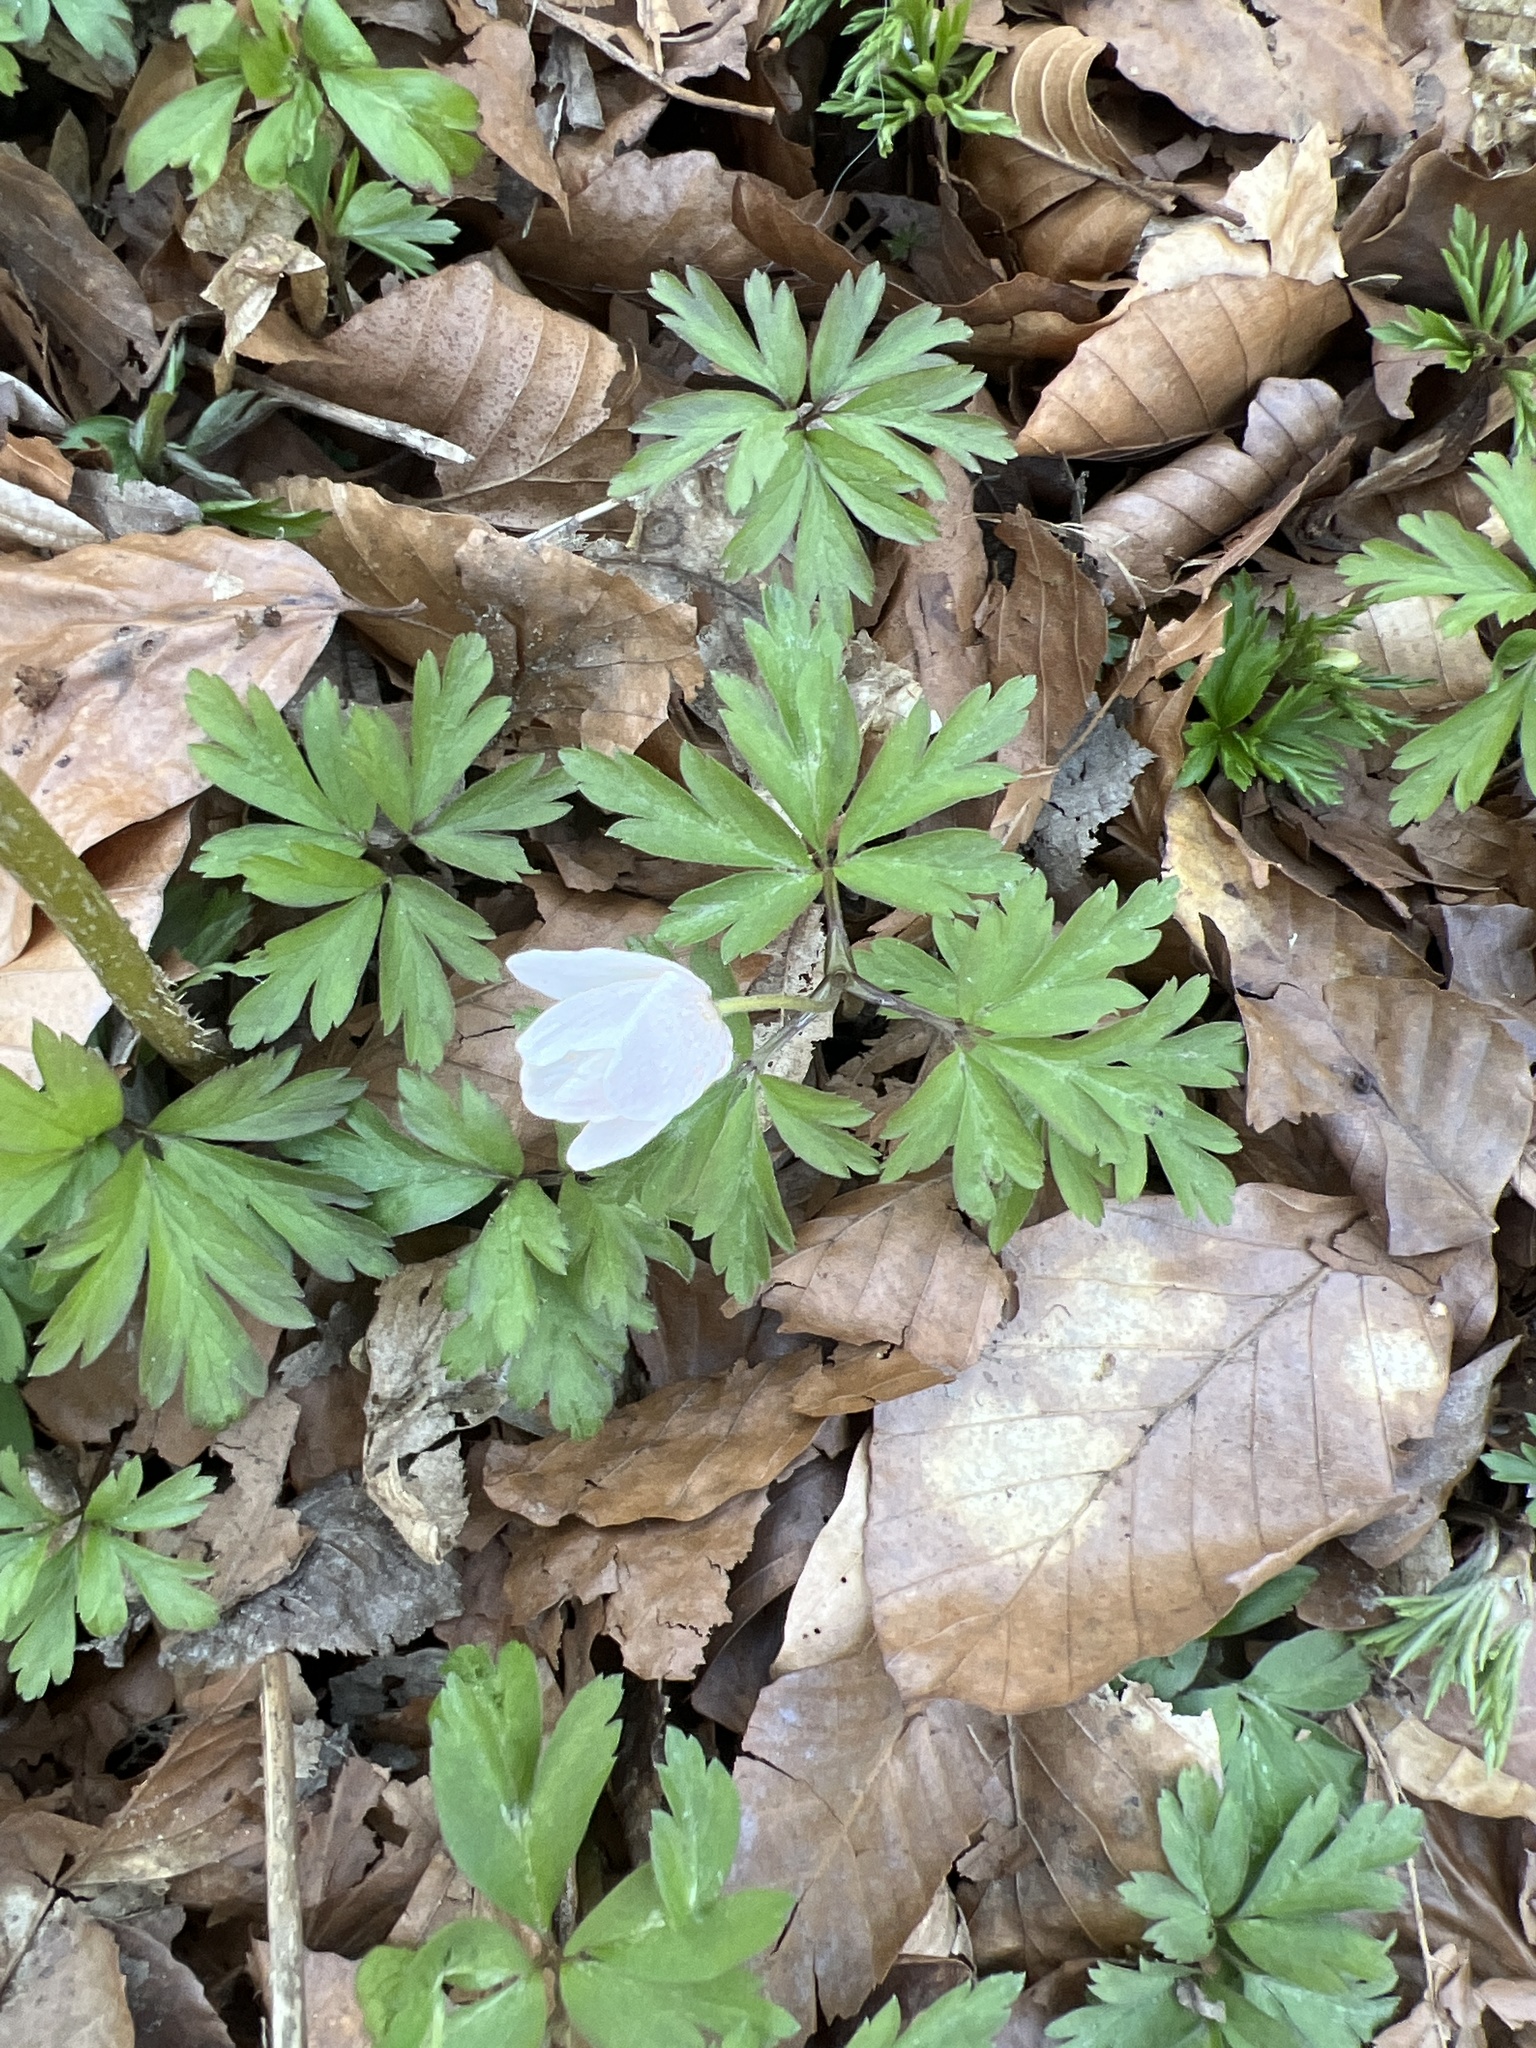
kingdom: Plantae
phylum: Tracheophyta
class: Magnoliopsida
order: Ranunculales
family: Ranunculaceae
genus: Anemone
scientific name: Anemone nemorosa
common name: Wood anemone
